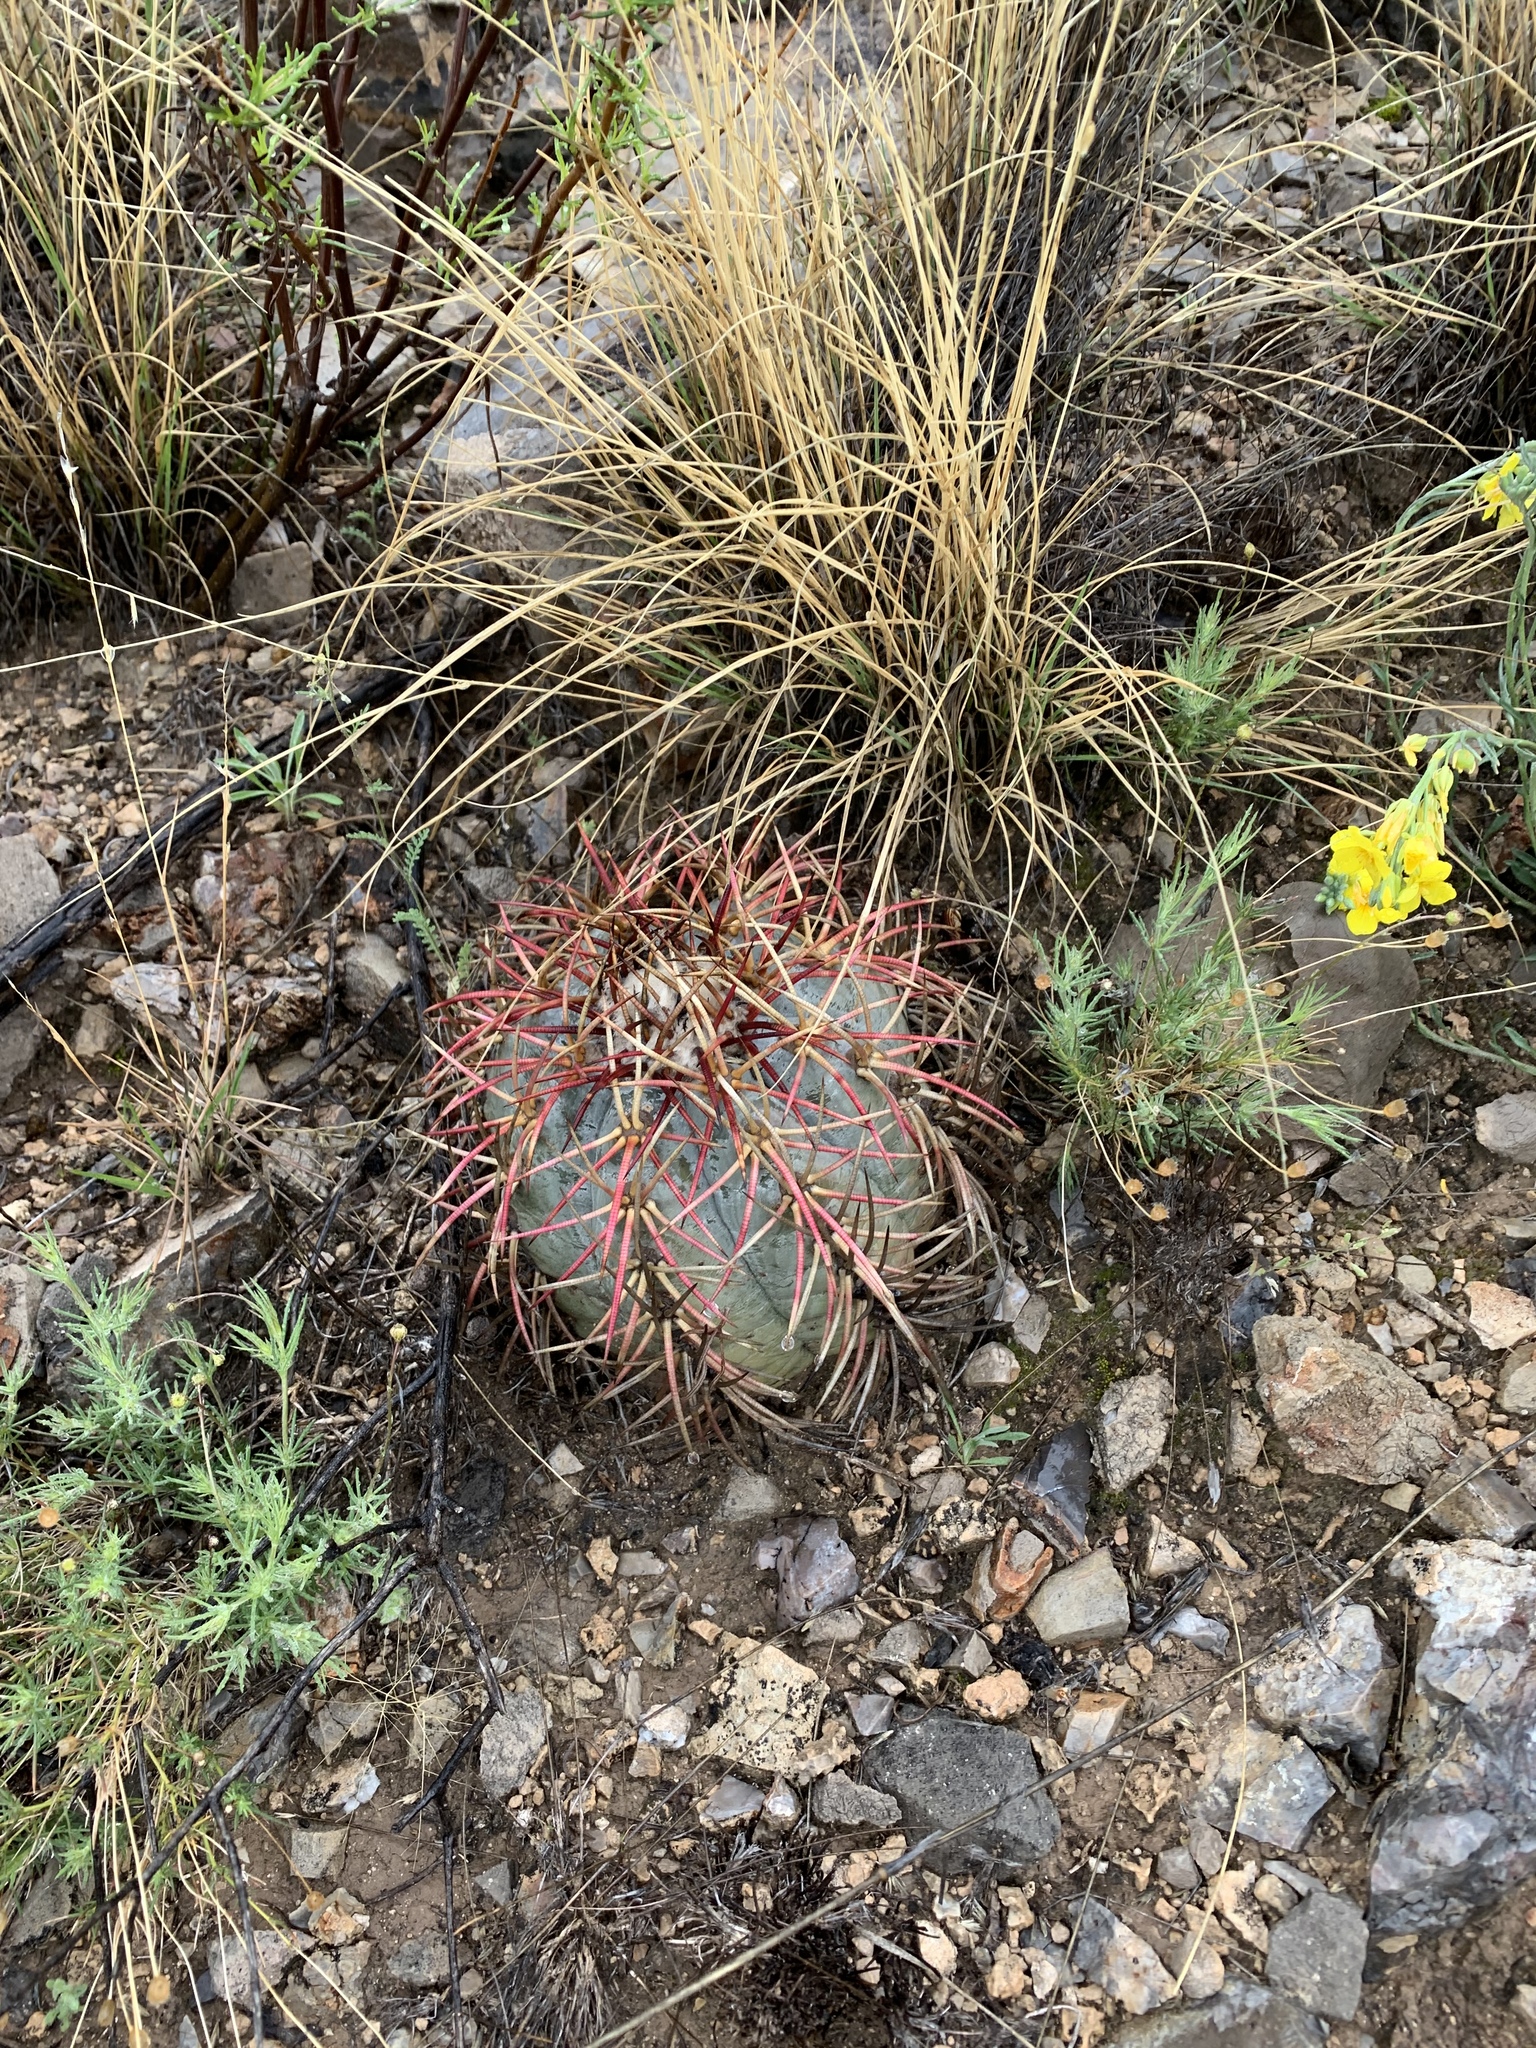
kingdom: Plantae
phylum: Tracheophyta
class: Magnoliopsida
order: Caryophyllales
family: Cactaceae
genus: Echinocactus
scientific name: Echinocactus horizonthalonius
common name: Devilshead
